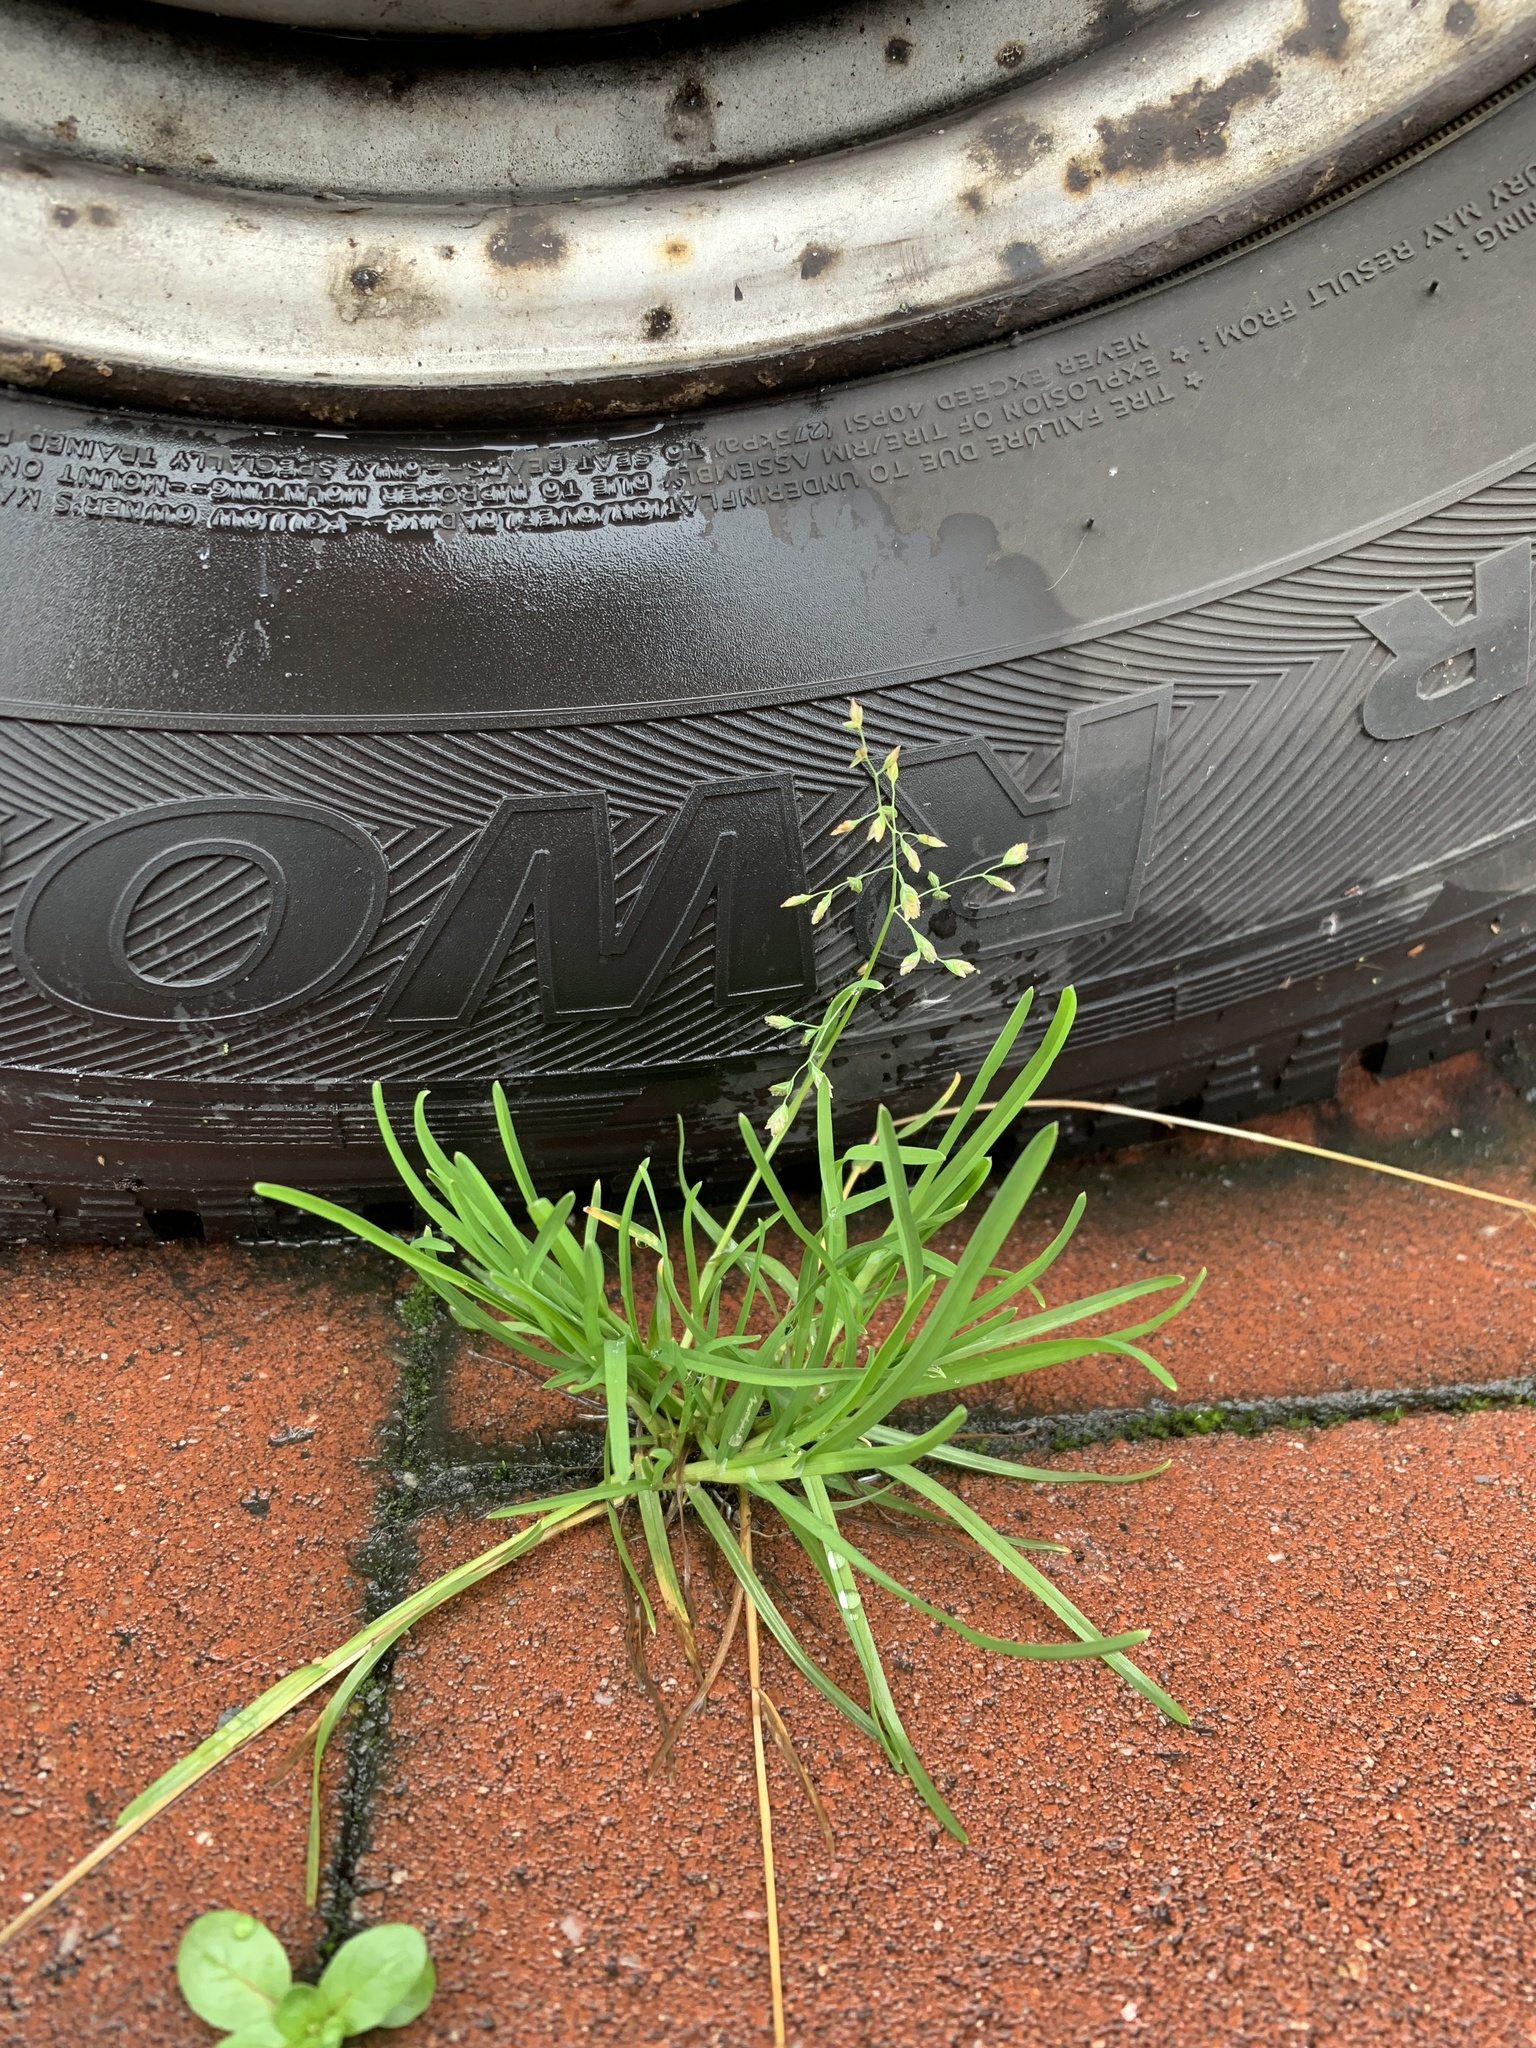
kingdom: Plantae
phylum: Tracheophyta
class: Liliopsida
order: Poales
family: Poaceae
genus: Poa
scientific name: Poa annua
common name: Annual bluegrass
